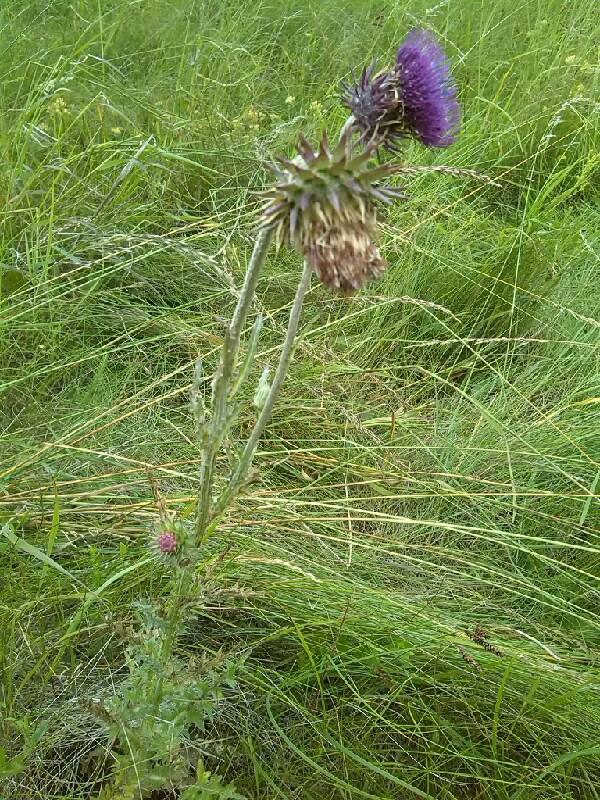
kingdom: Plantae
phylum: Tracheophyta
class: Magnoliopsida
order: Asterales
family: Asteraceae
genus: Carduus
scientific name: Carduus nutans
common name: Musk thistle
